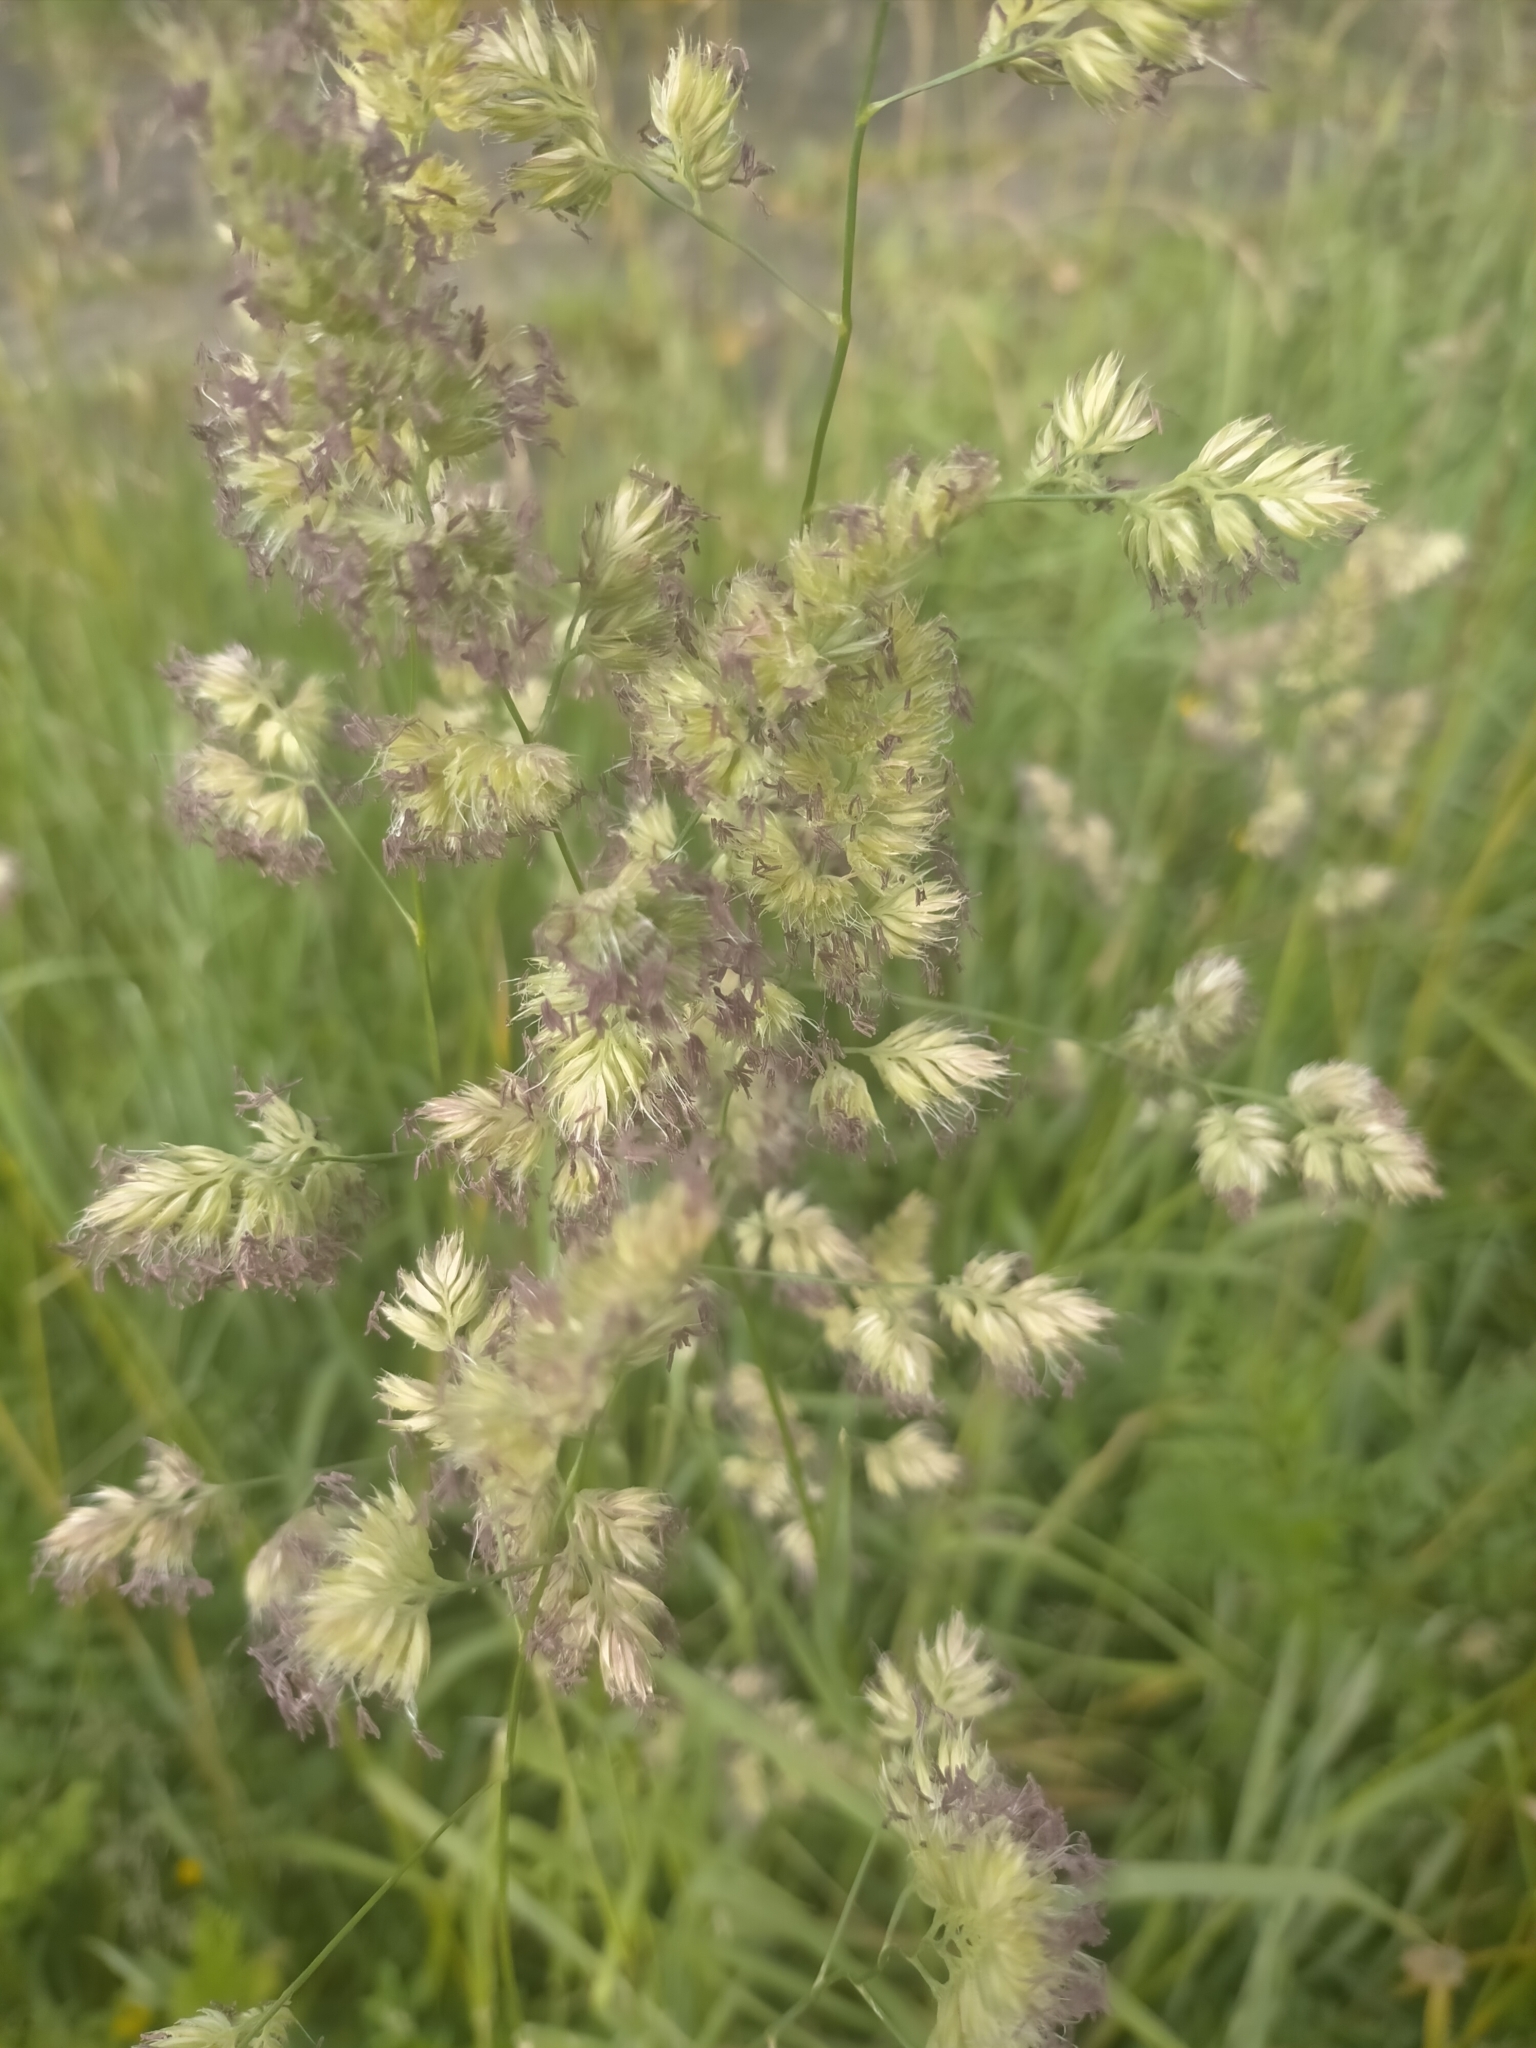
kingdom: Plantae
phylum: Tracheophyta
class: Liliopsida
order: Poales
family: Poaceae
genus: Dactylis
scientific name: Dactylis glomerata
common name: Orchardgrass
